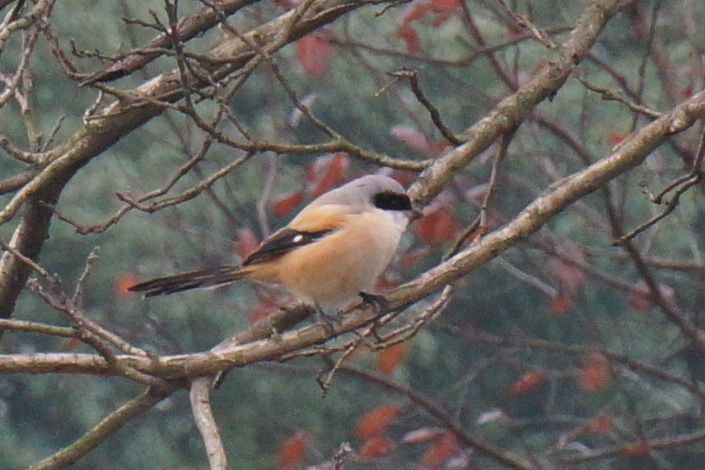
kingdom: Animalia
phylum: Chordata
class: Aves
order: Passeriformes
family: Laniidae
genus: Lanius
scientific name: Lanius schach
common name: Long-tailed shrike
